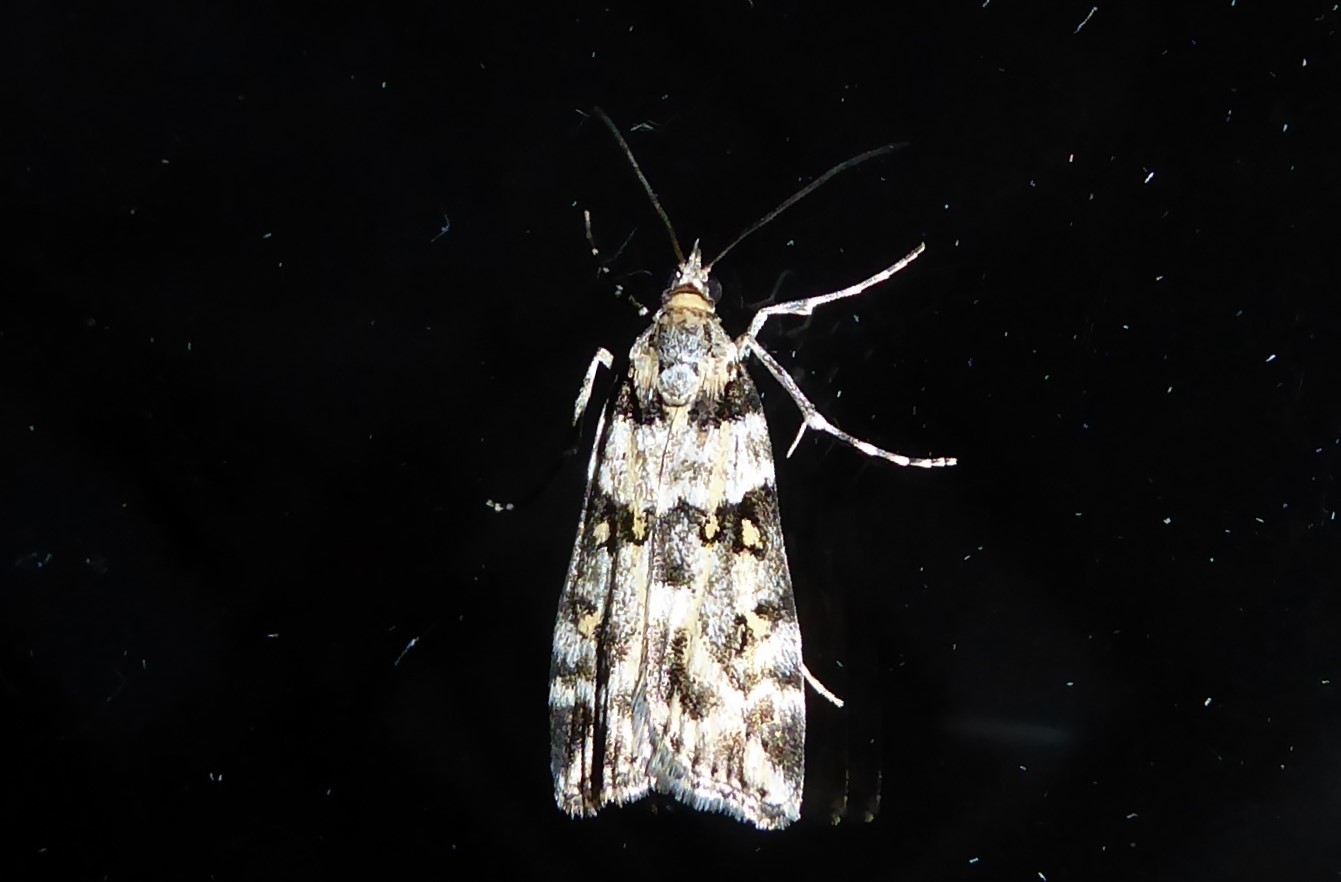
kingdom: Animalia
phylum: Arthropoda
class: Insecta
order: Lepidoptera
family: Crambidae
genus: Eudonia
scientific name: Eudonia diphtheralis
